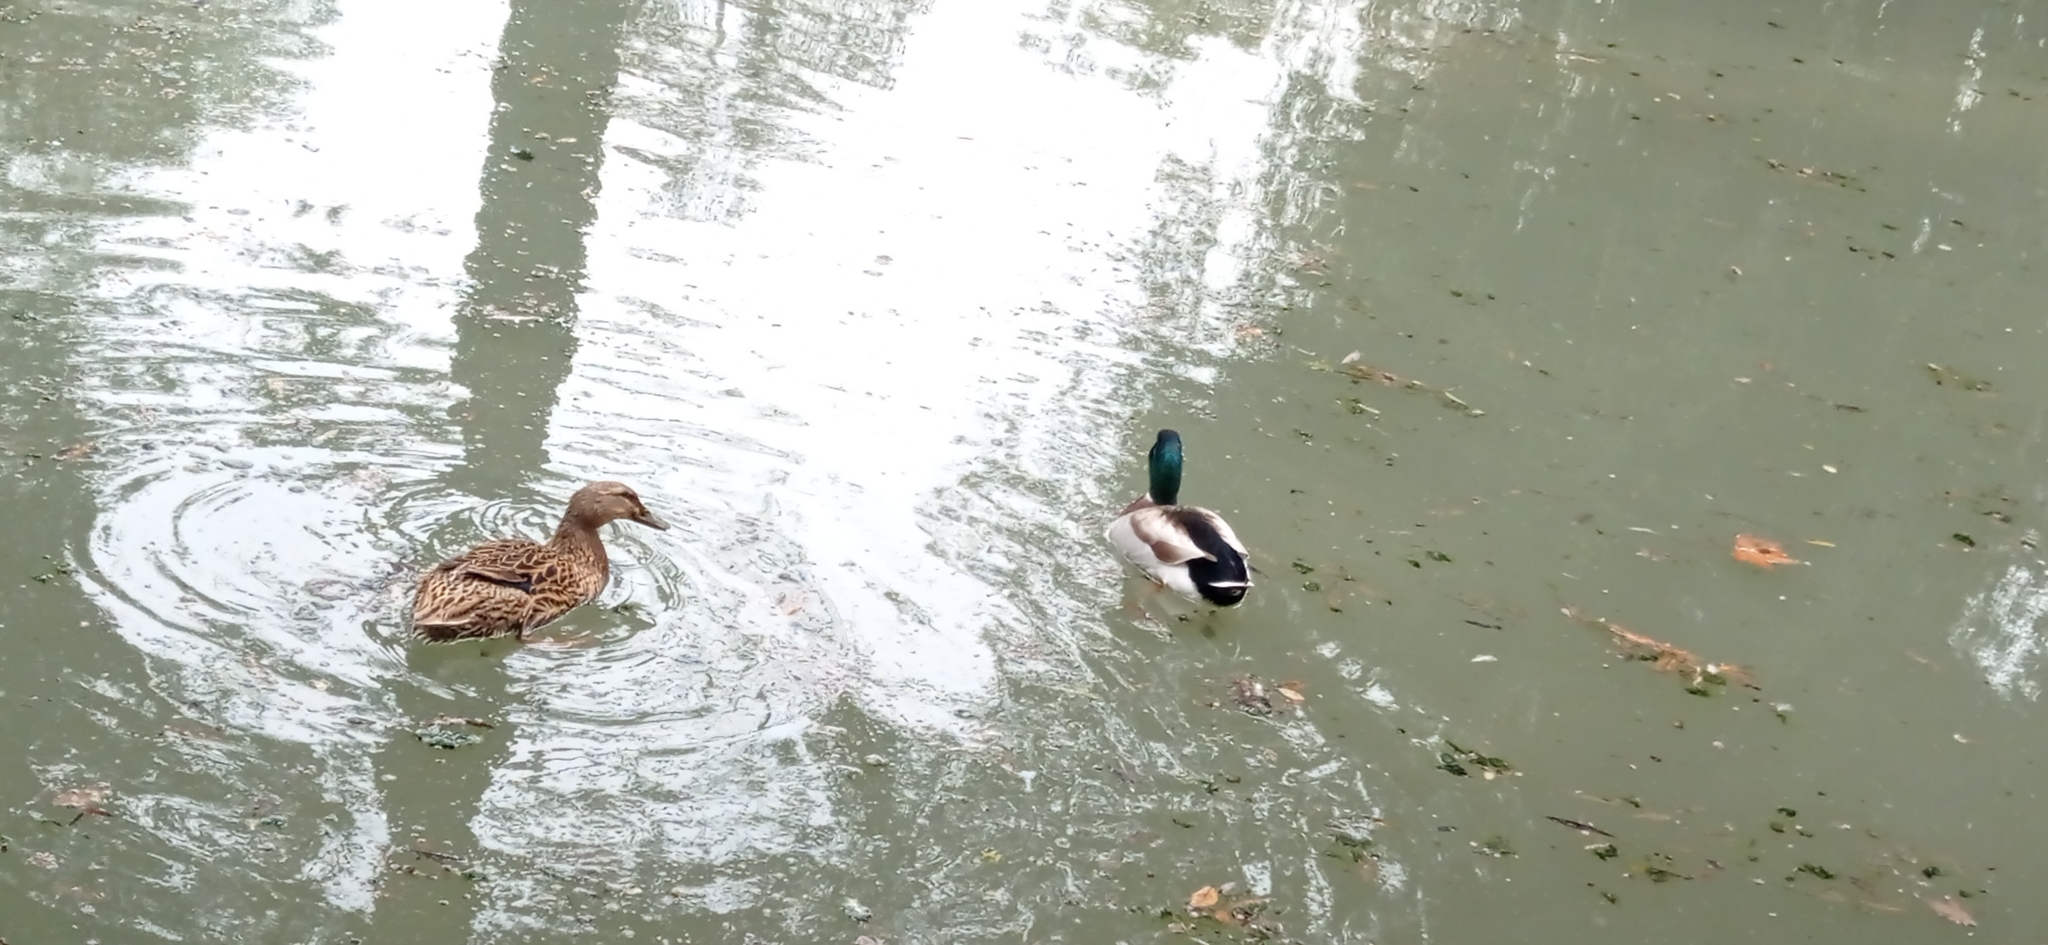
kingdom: Animalia
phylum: Chordata
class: Aves
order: Anseriformes
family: Anatidae
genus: Anas
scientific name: Anas platyrhynchos
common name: Mallard
